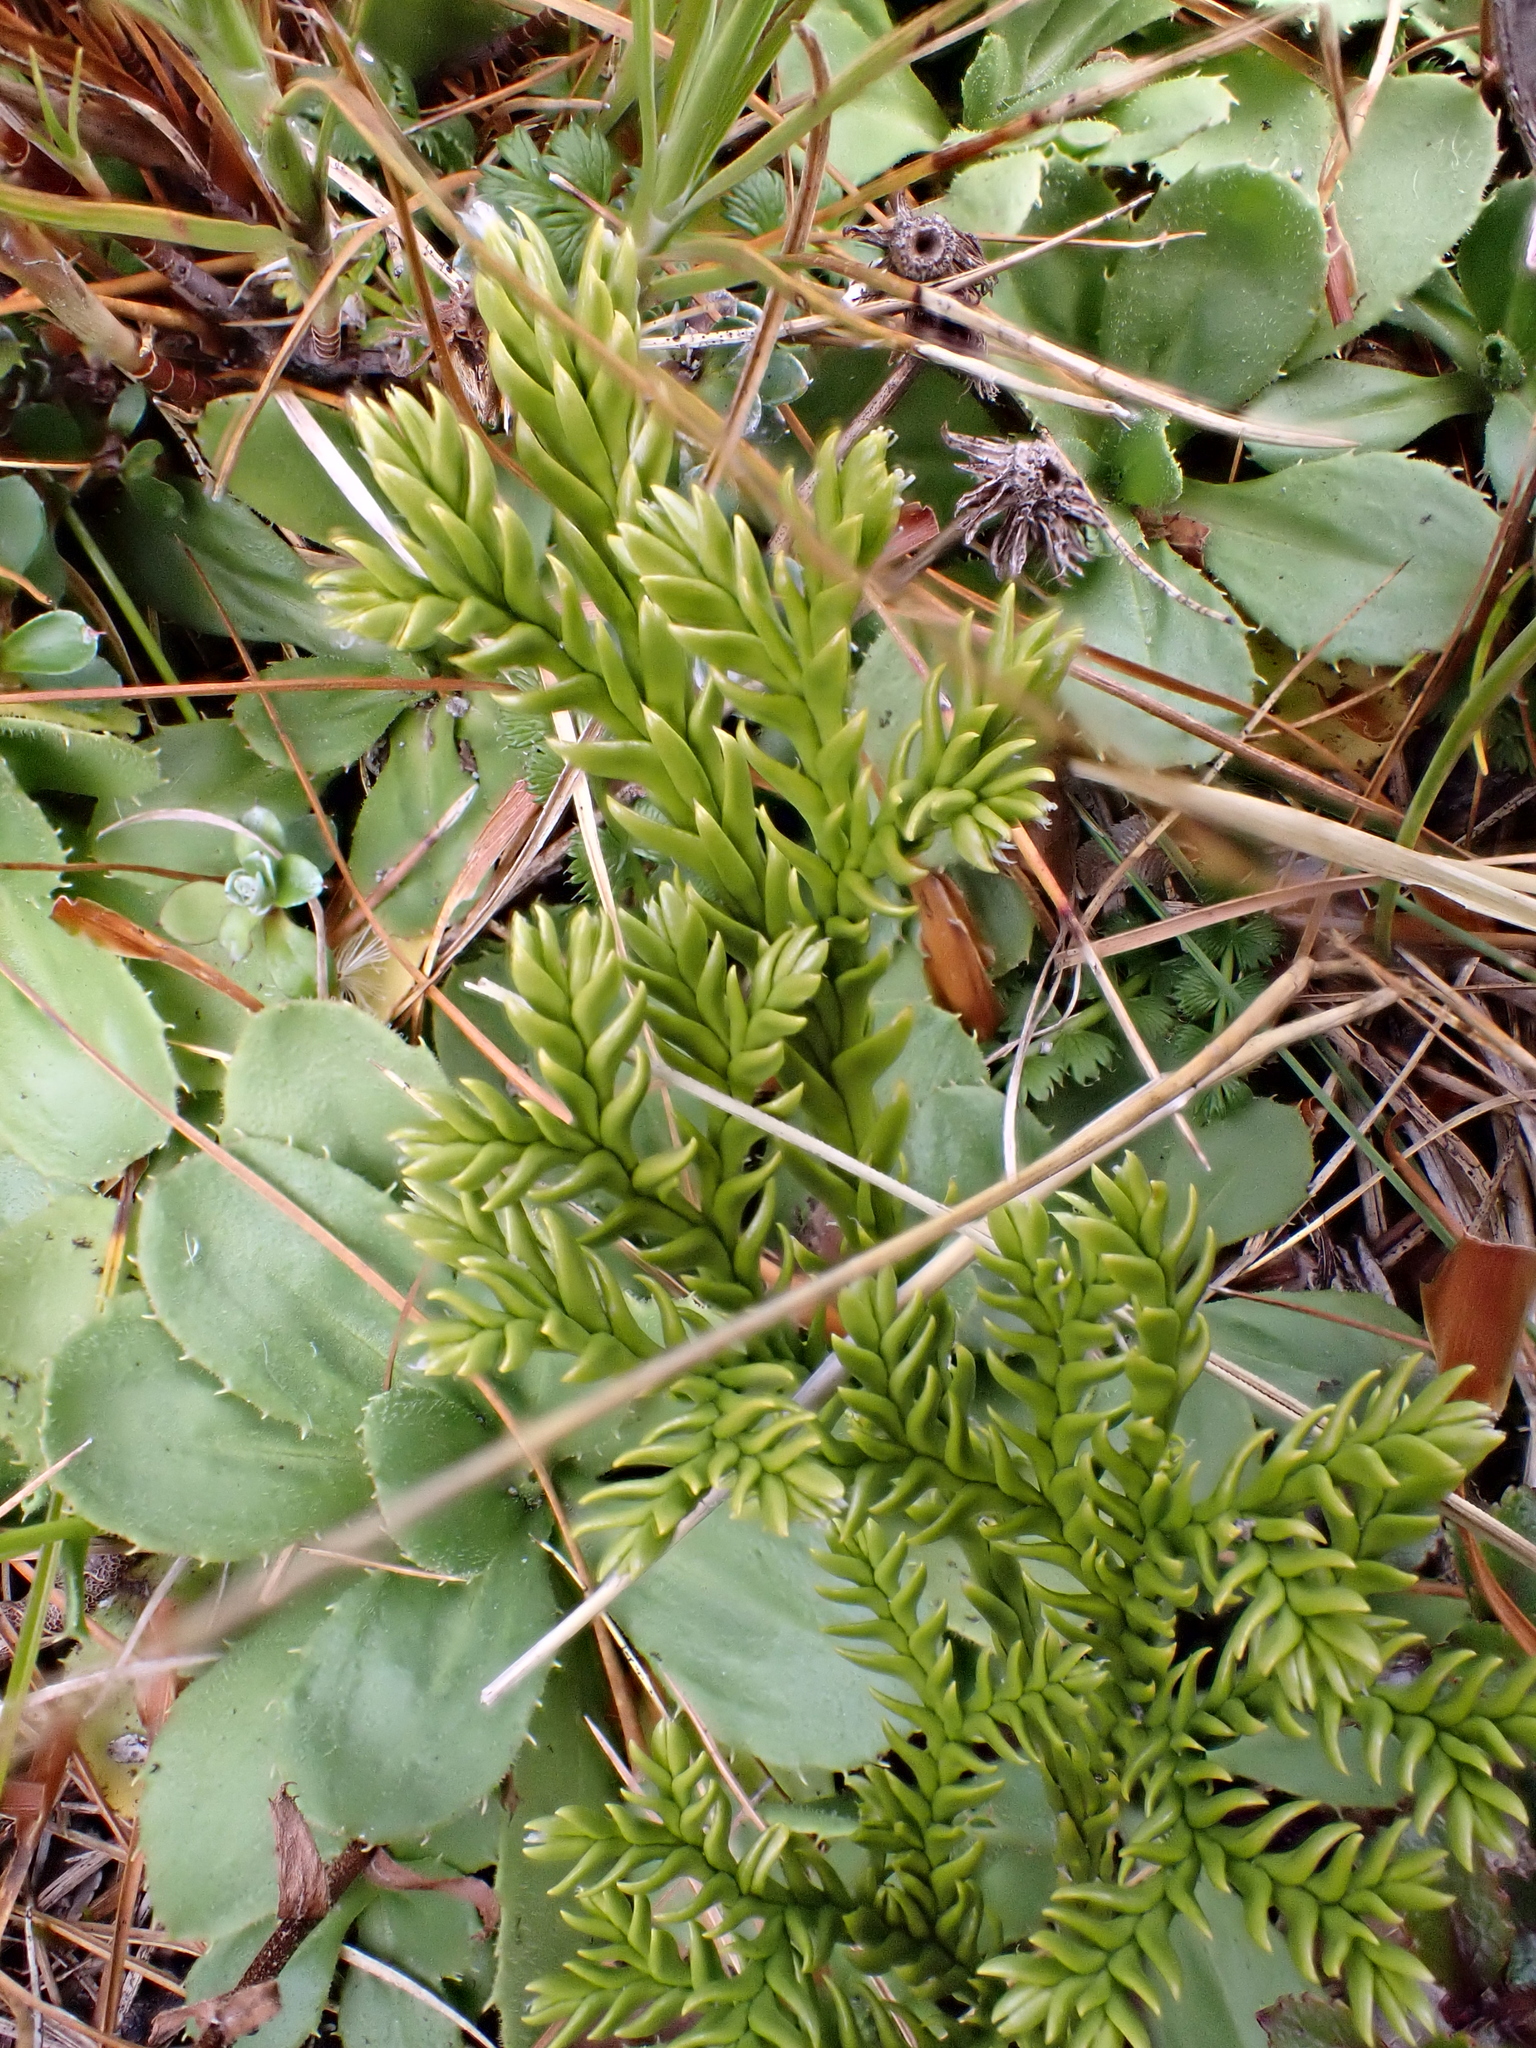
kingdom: Plantae
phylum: Tracheophyta
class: Lycopodiopsida
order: Lycopodiales
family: Lycopodiaceae
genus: Diphasium
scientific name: Diphasium scariosum
